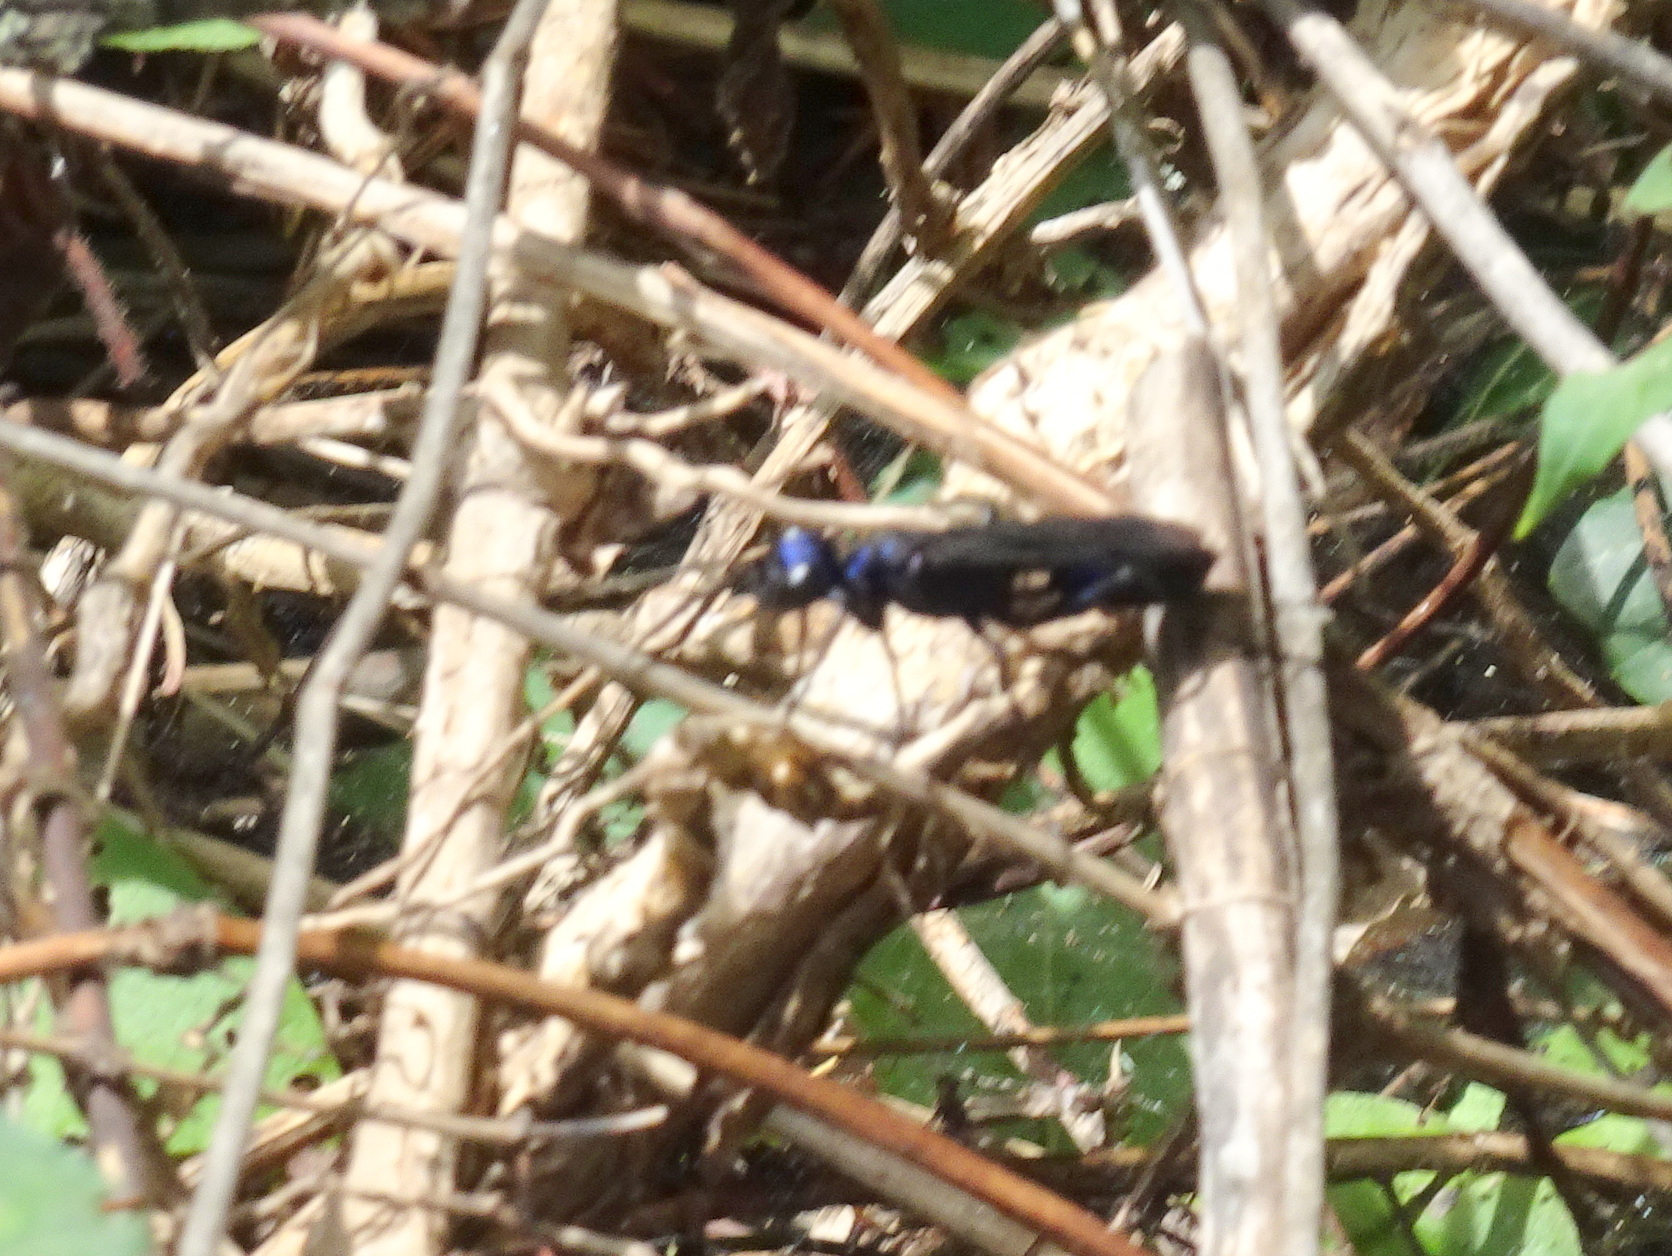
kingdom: Animalia
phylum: Arthropoda
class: Insecta
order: Hymenoptera
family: Sphecidae
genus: Chlorion
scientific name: Chlorion aerarium
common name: Steel-blue cricket hunter
